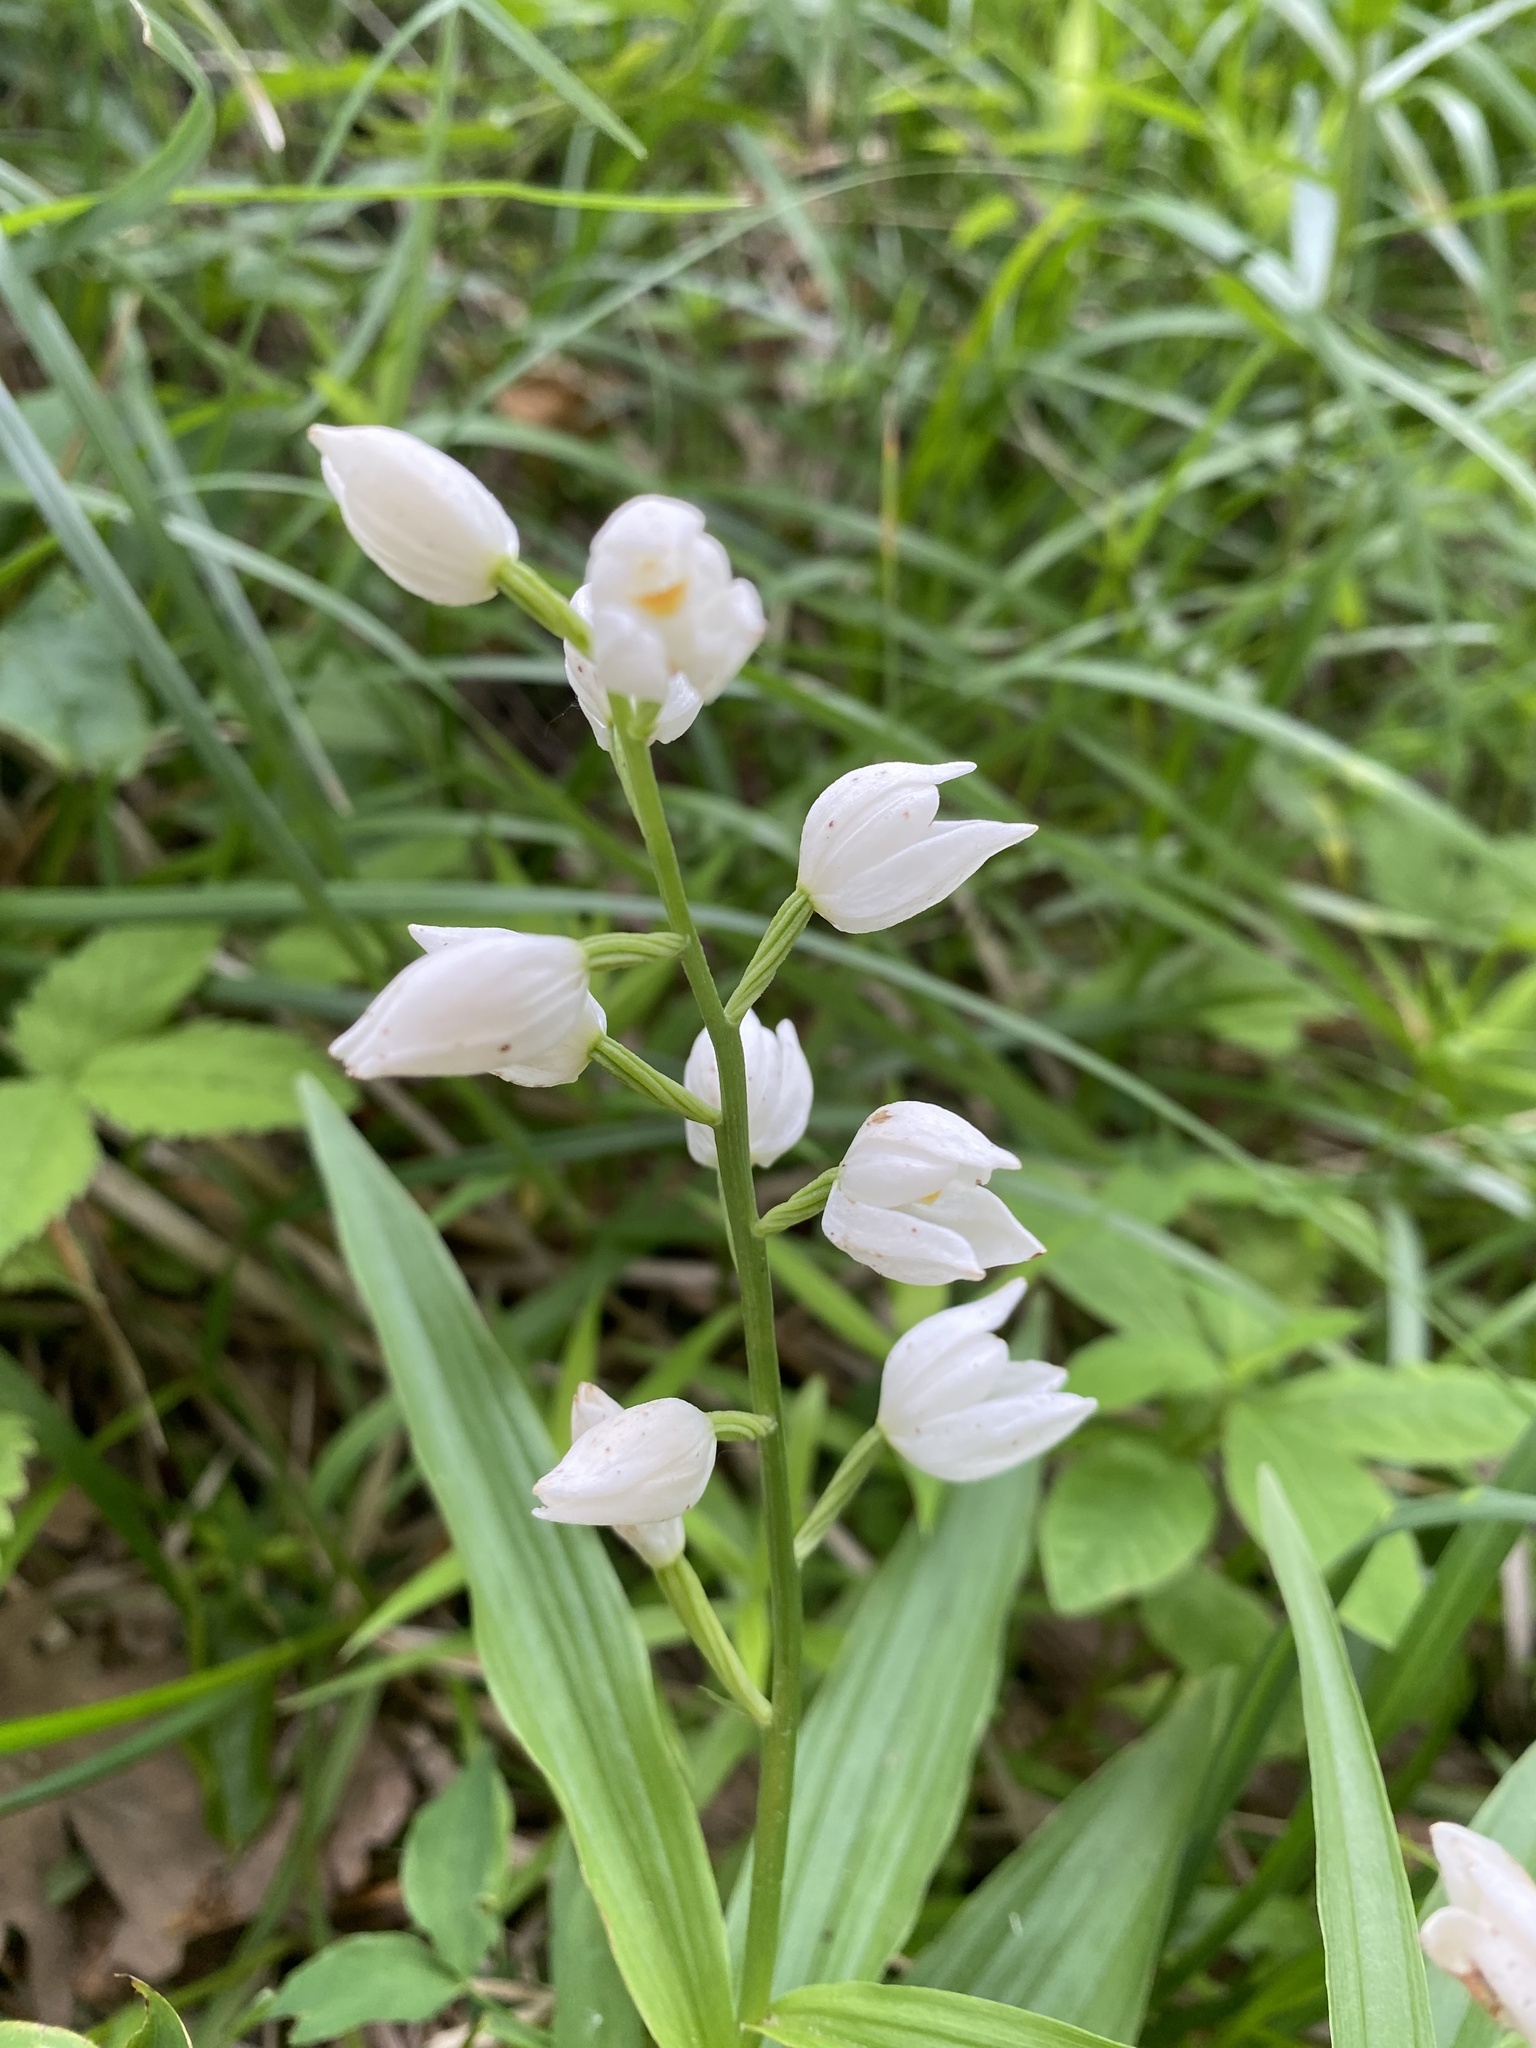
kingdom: Plantae
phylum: Tracheophyta
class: Liliopsida
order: Asparagales
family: Orchidaceae
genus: Cephalanthera
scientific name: Cephalanthera longifolia
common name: Narrow-leaved helleborine
